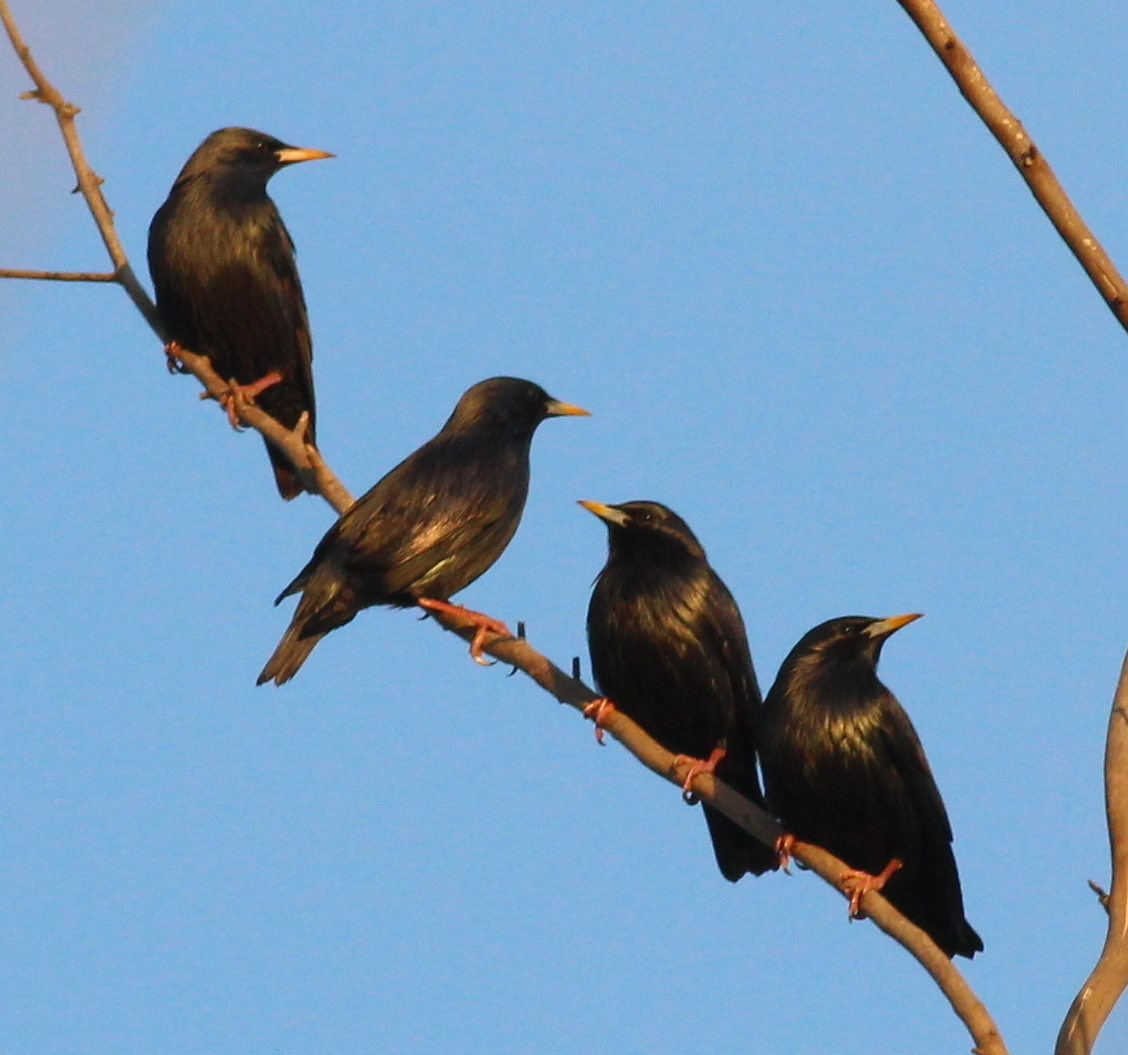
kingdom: Animalia
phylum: Chordata
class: Aves
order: Passeriformes
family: Sturnidae
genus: Sturnus
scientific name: Sturnus unicolor
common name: Spotless starling
